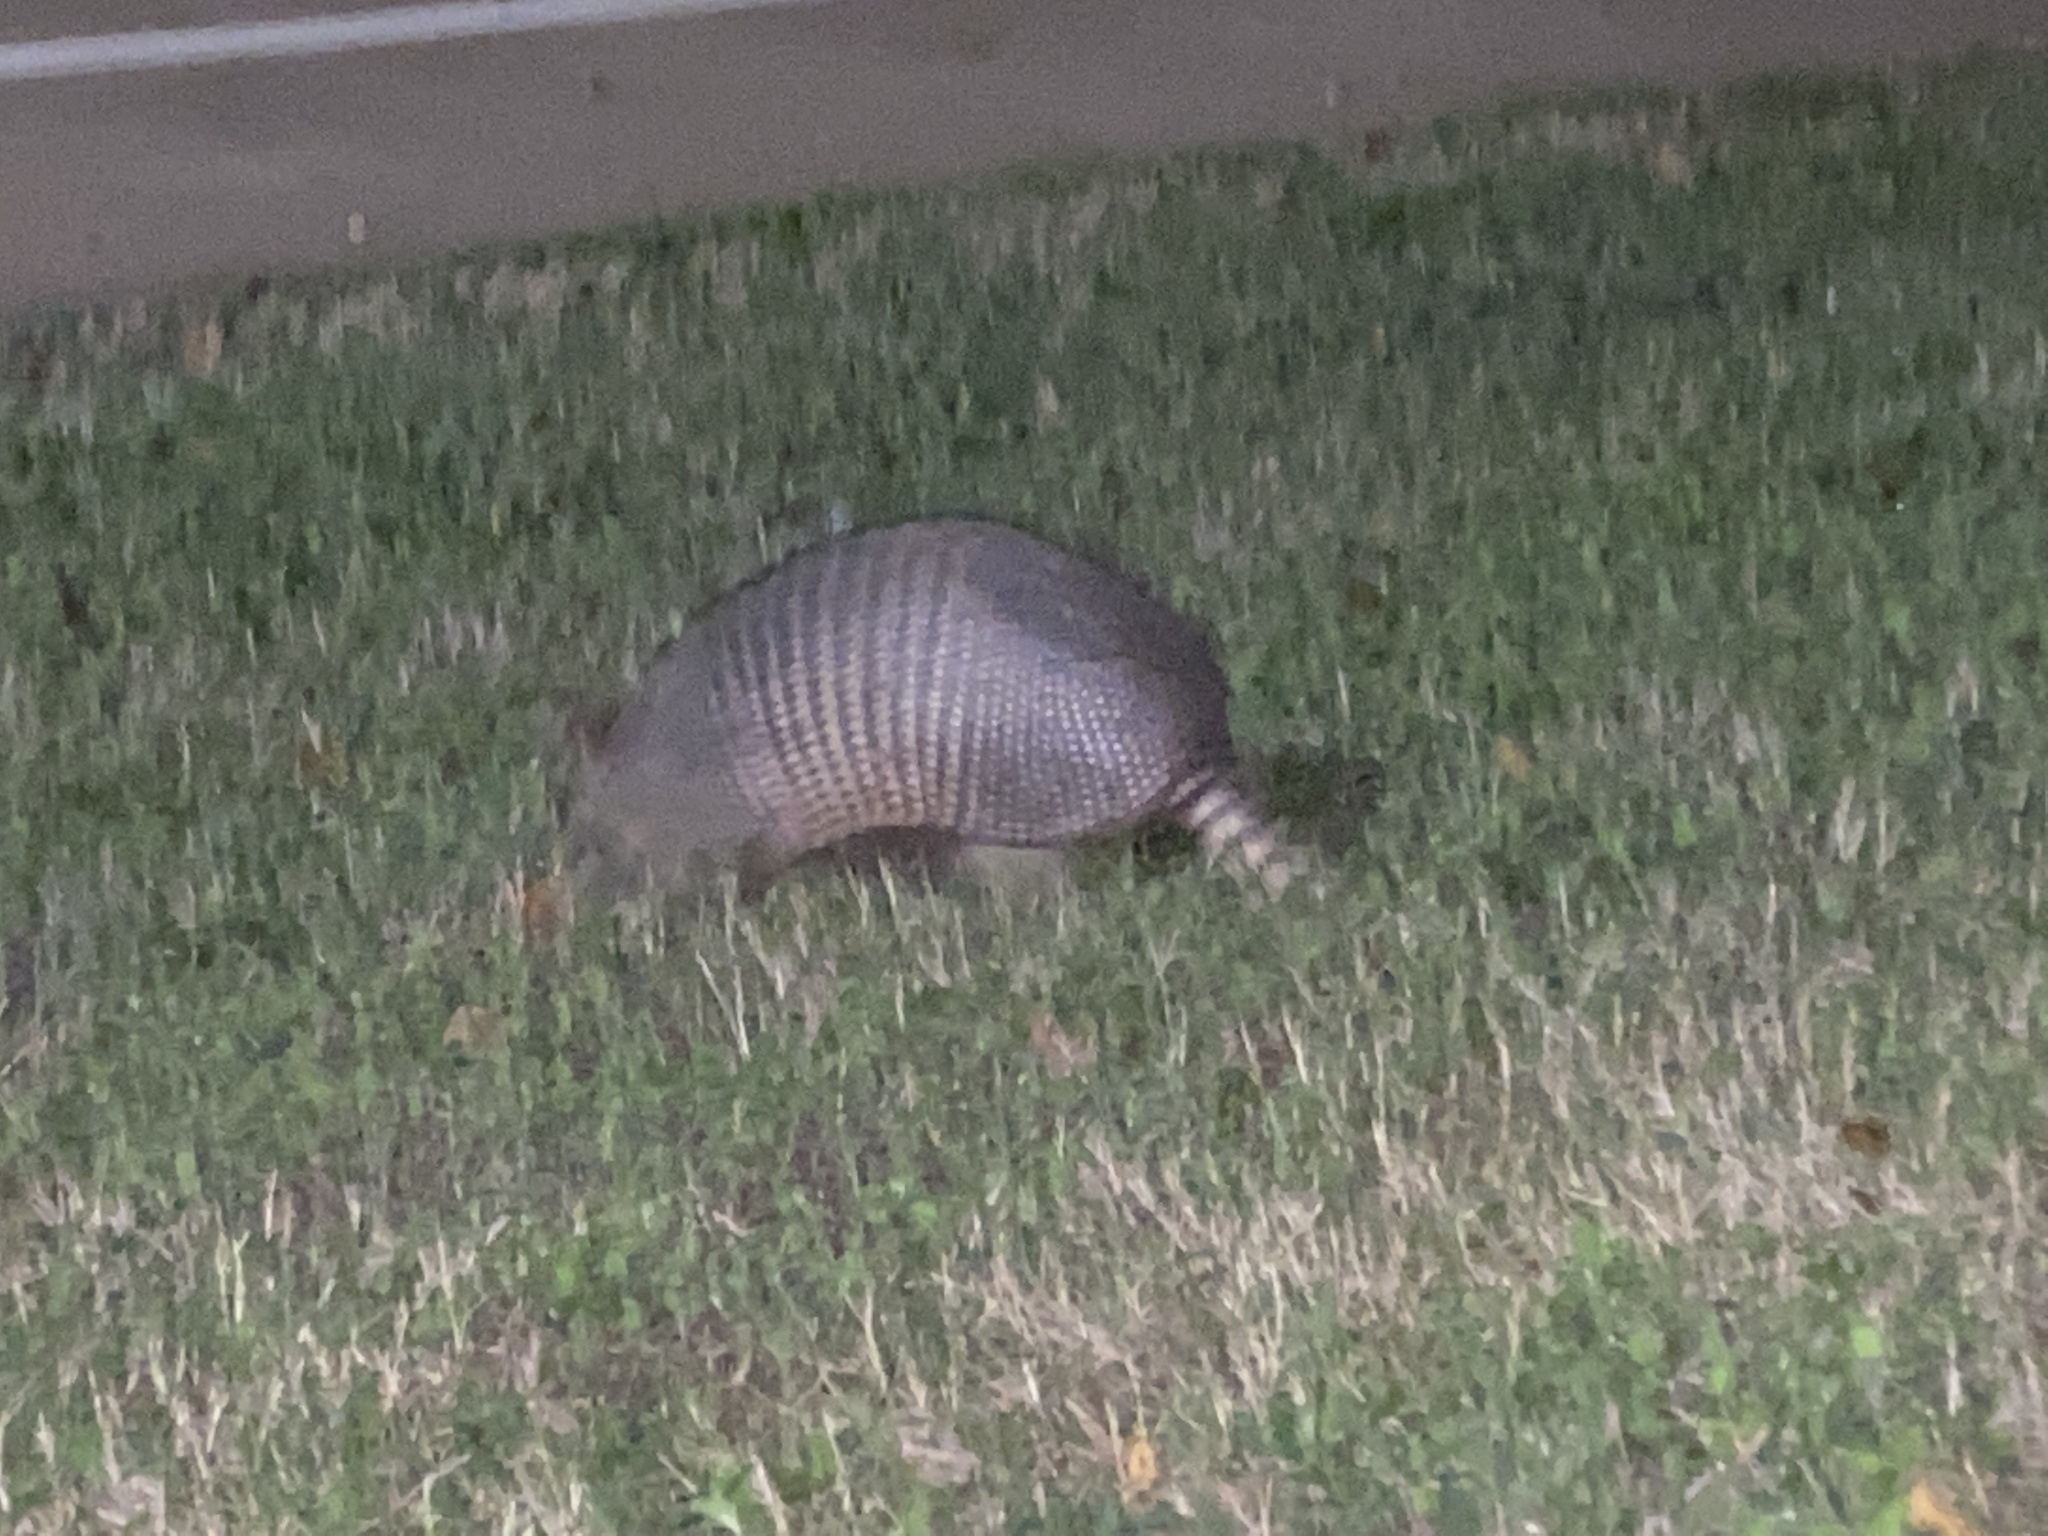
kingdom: Animalia
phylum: Chordata
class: Mammalia
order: Cingulata
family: Dasypodidae
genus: Dasypus
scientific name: Dasypus novemcinctus
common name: Nine-banded armadillo
